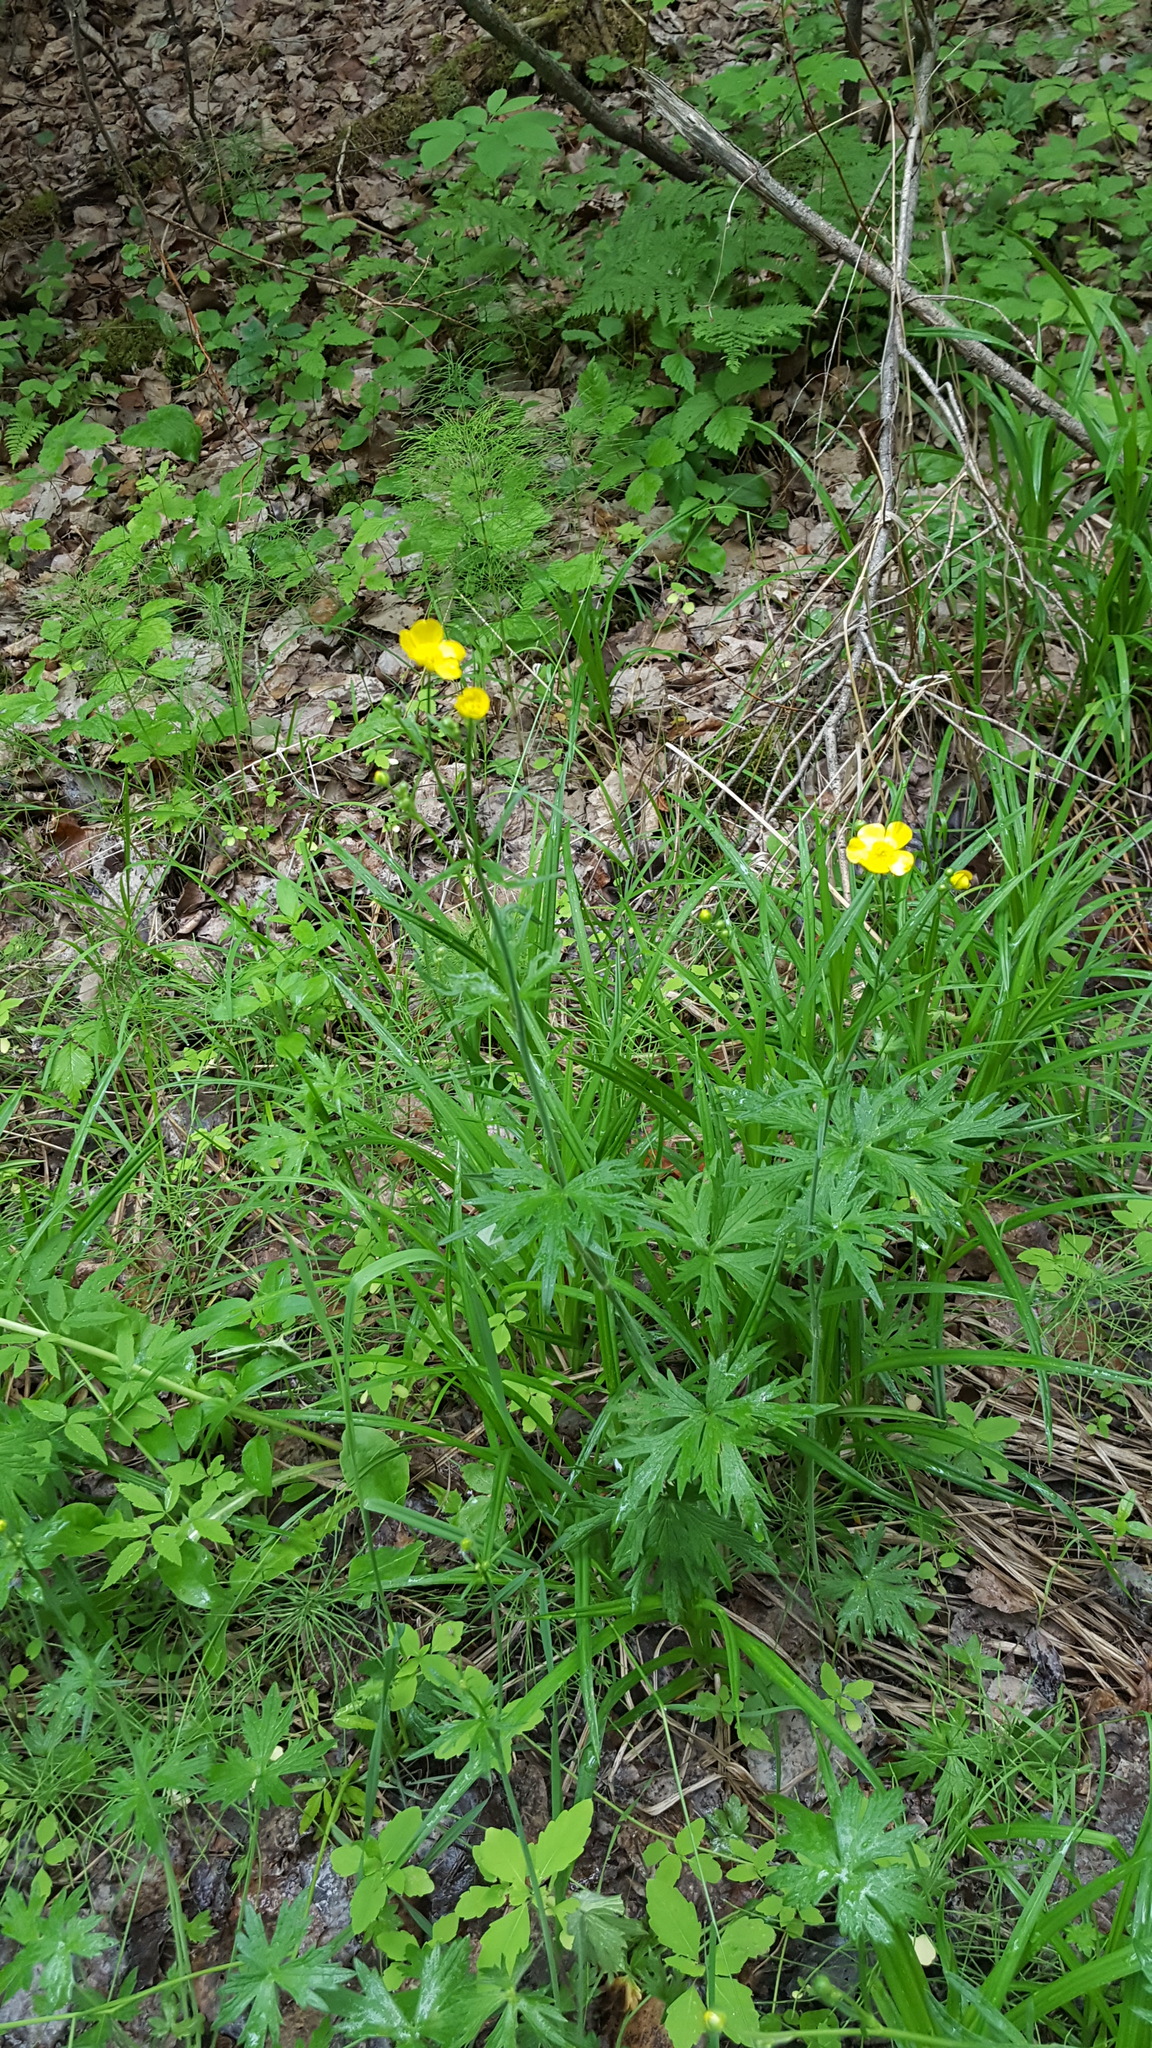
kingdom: Plantae
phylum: Tracheophyta
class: Magnoliopsida
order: Ranunculales
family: Ranunculaceae
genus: Ranunculus
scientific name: Ranunculus acris
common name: Meadow buttercup
